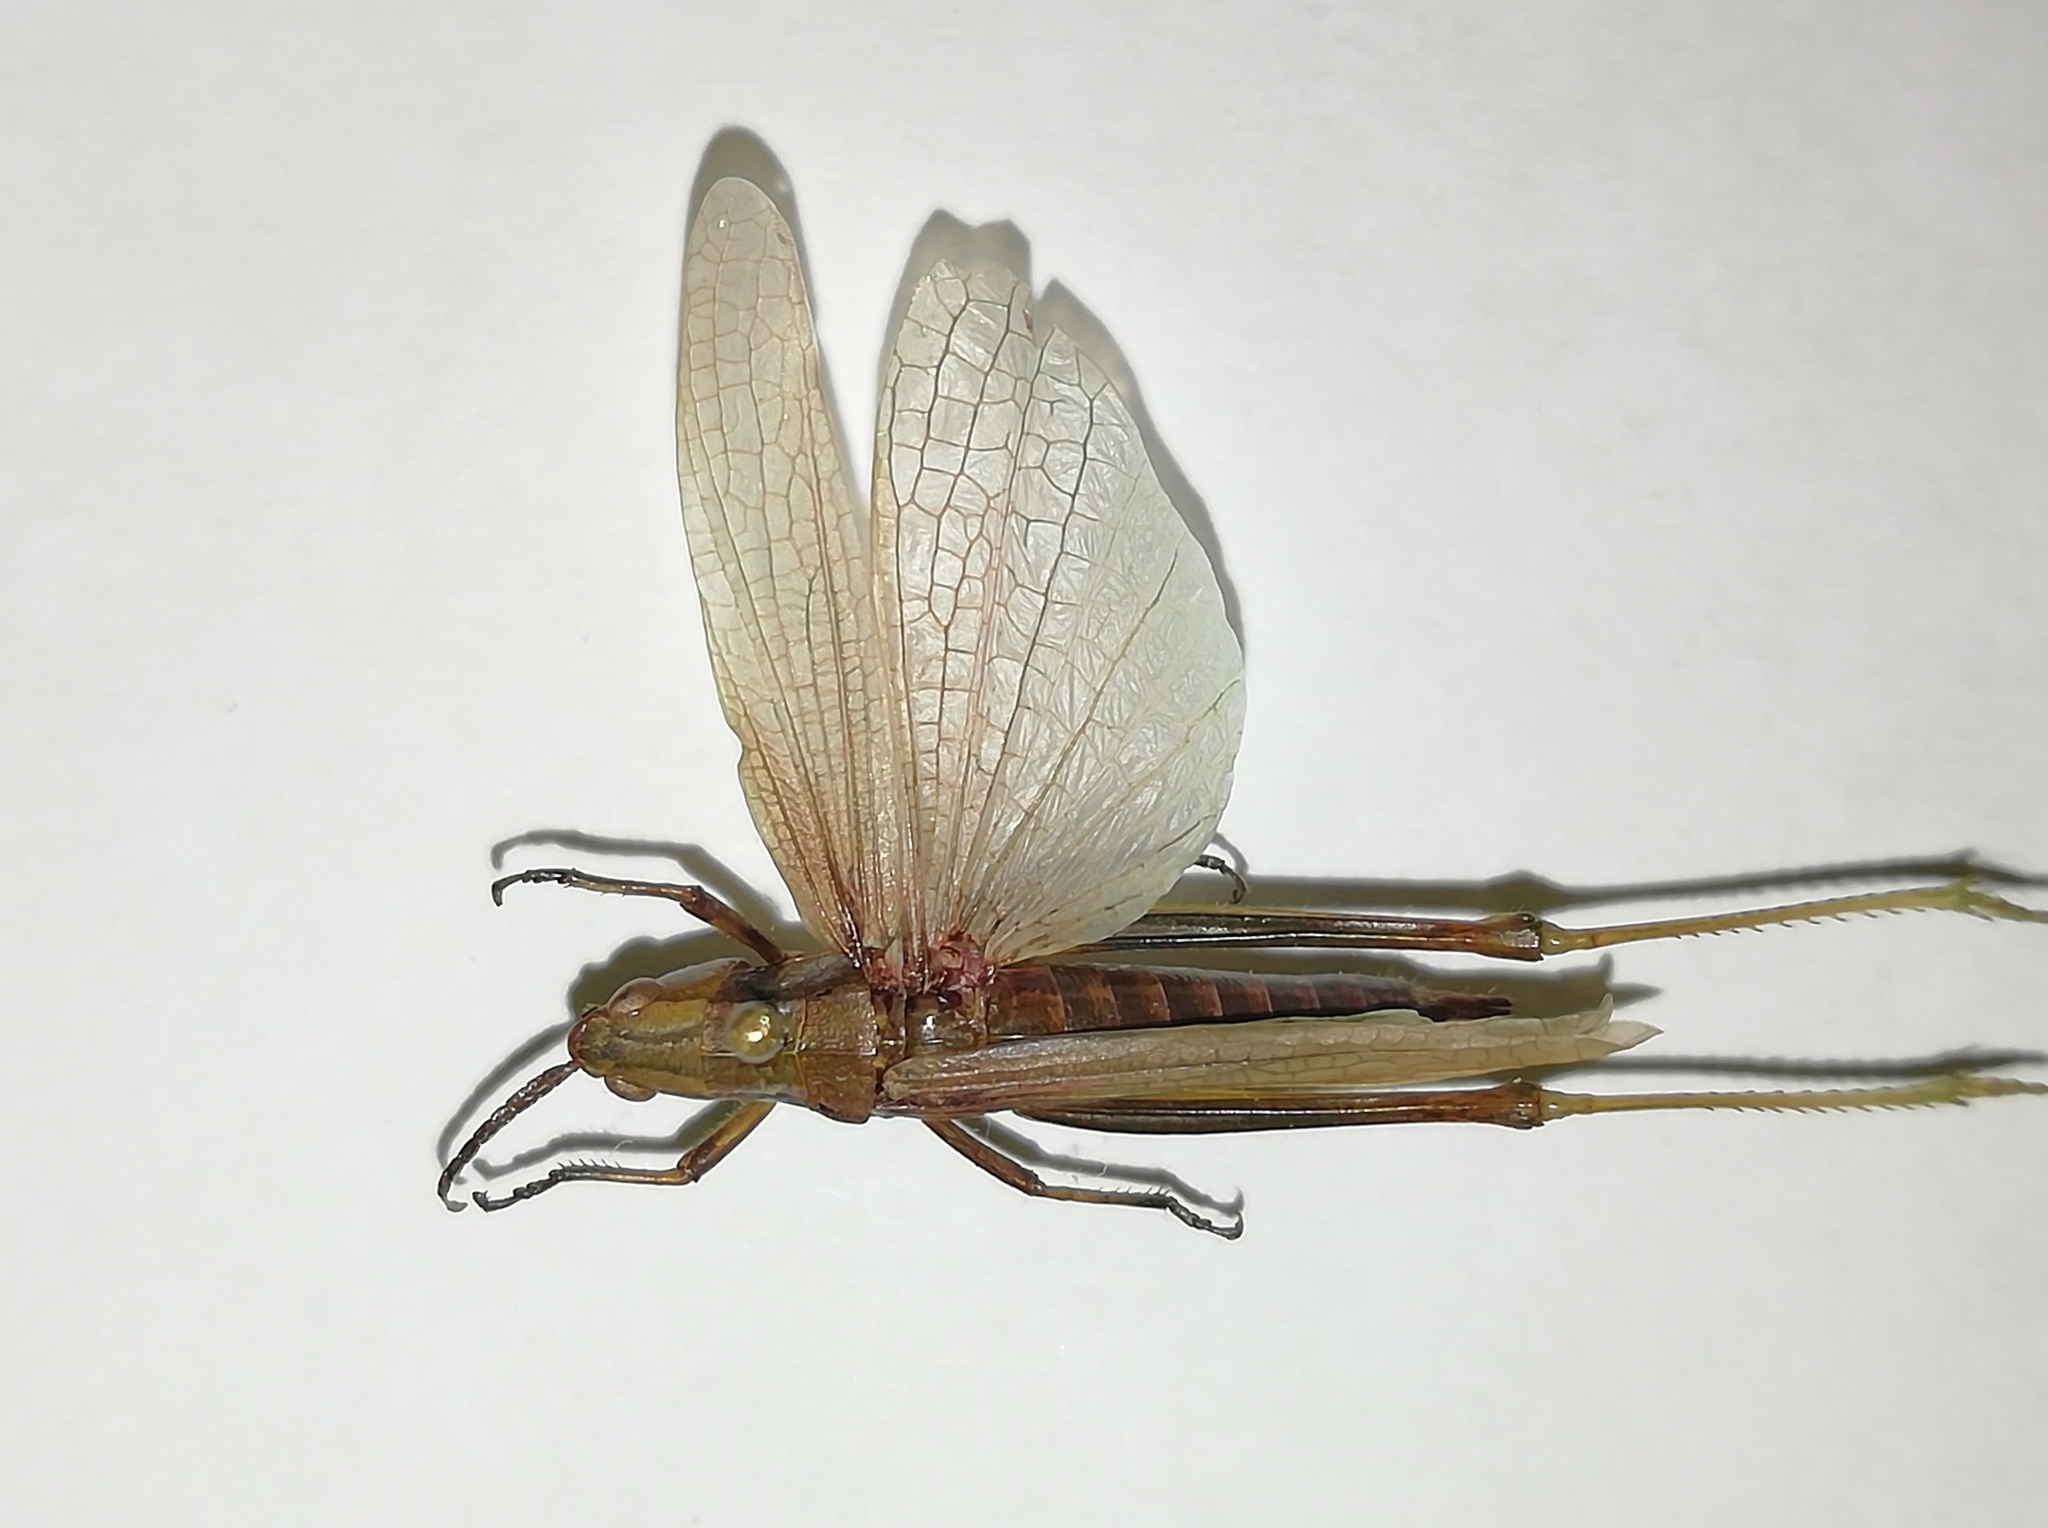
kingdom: Animalia
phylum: Arthropoda
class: Insecta
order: Orthoptera
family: Acrididae
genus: Euthystira
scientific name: Euthystira brachyptera
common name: Small gold grasshopper
